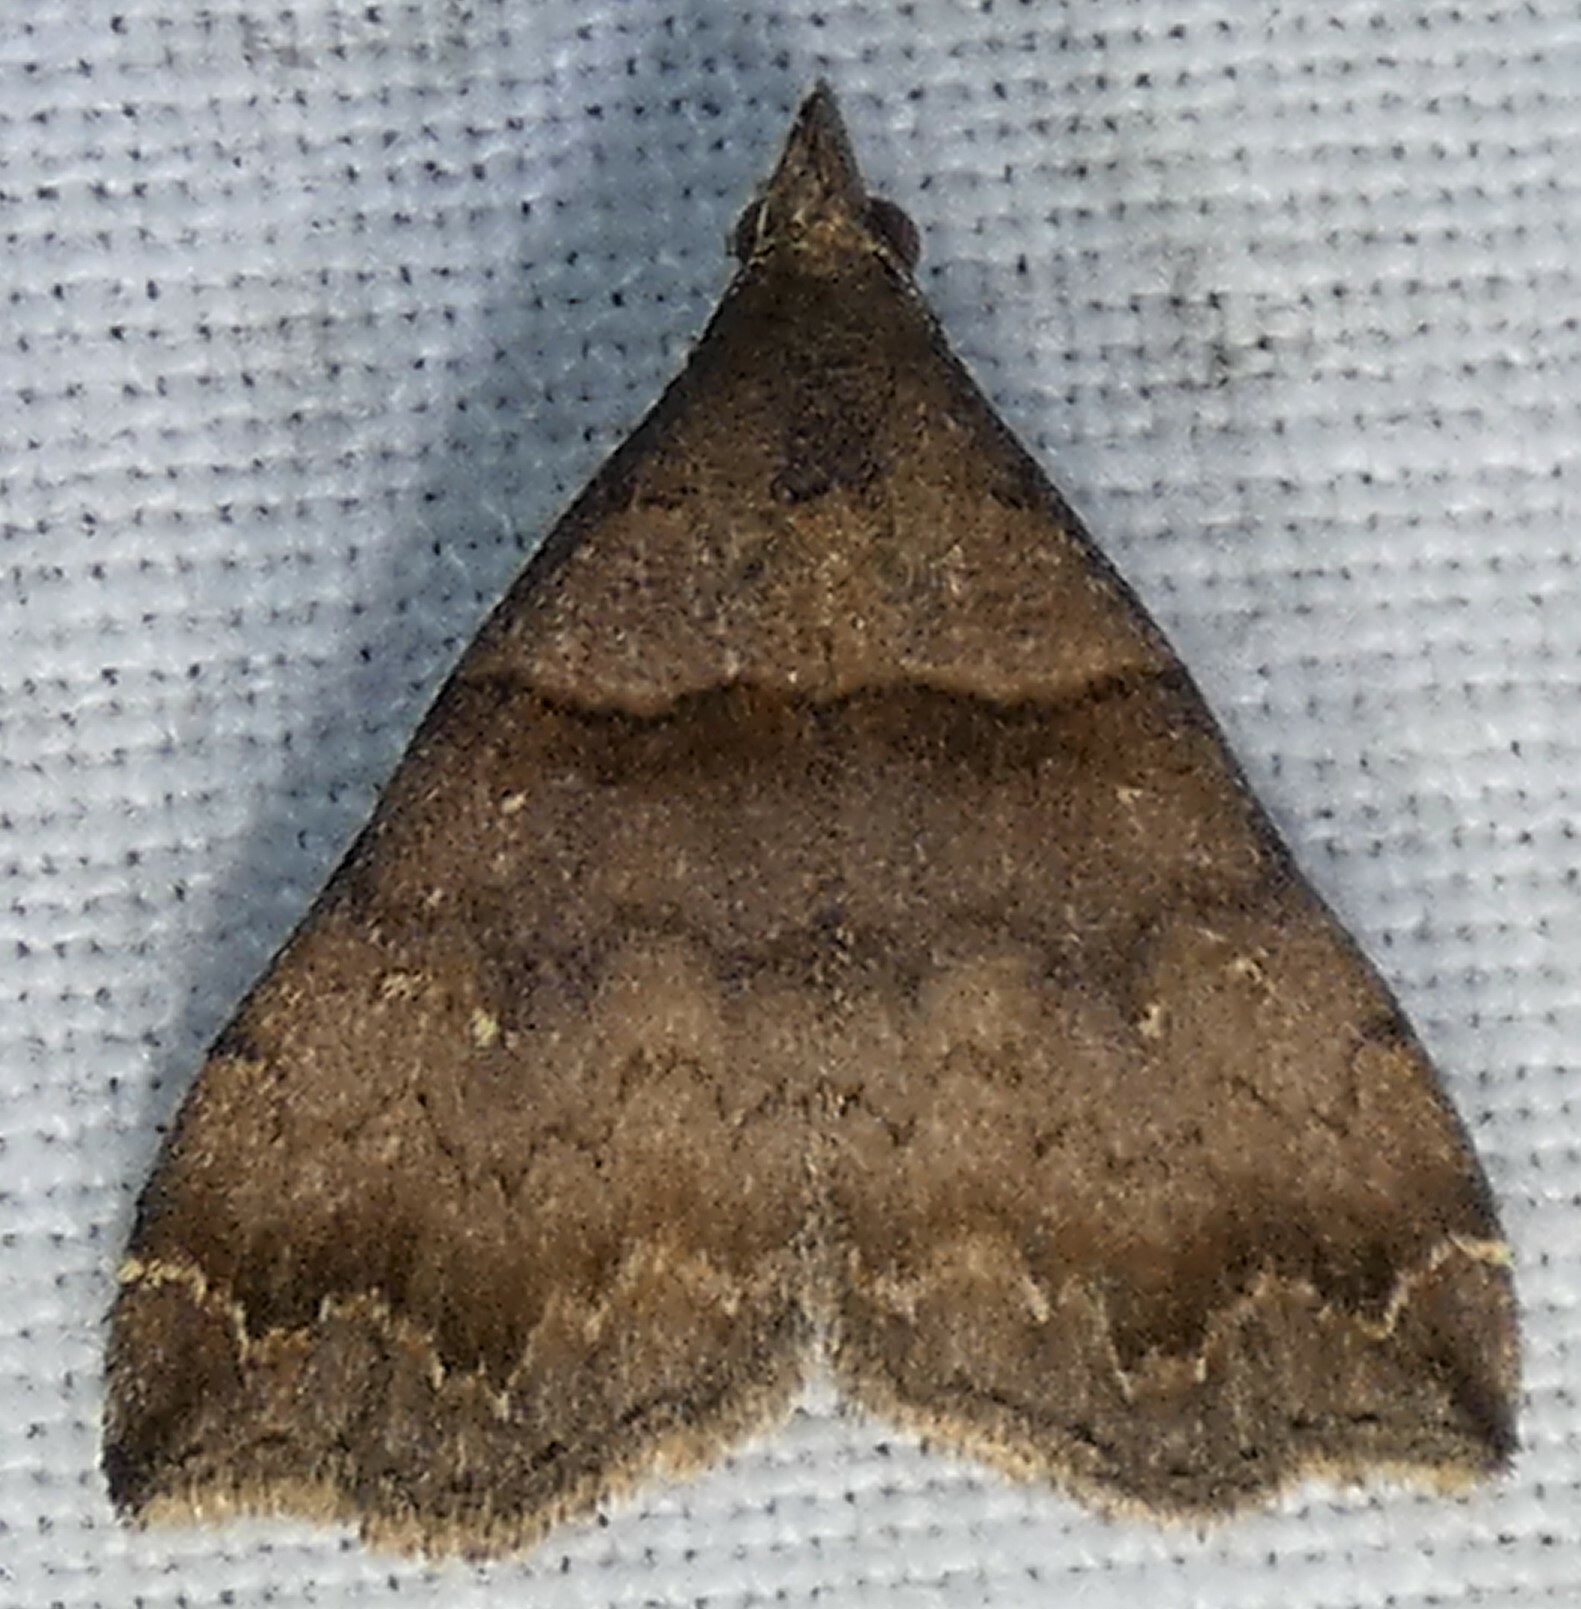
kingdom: Animalia
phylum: Arthropoda
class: Insecta
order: Lepidoptera
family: Erebidae
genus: Lascoria
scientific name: Lascoria ambigualis
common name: Ambiguous moth
